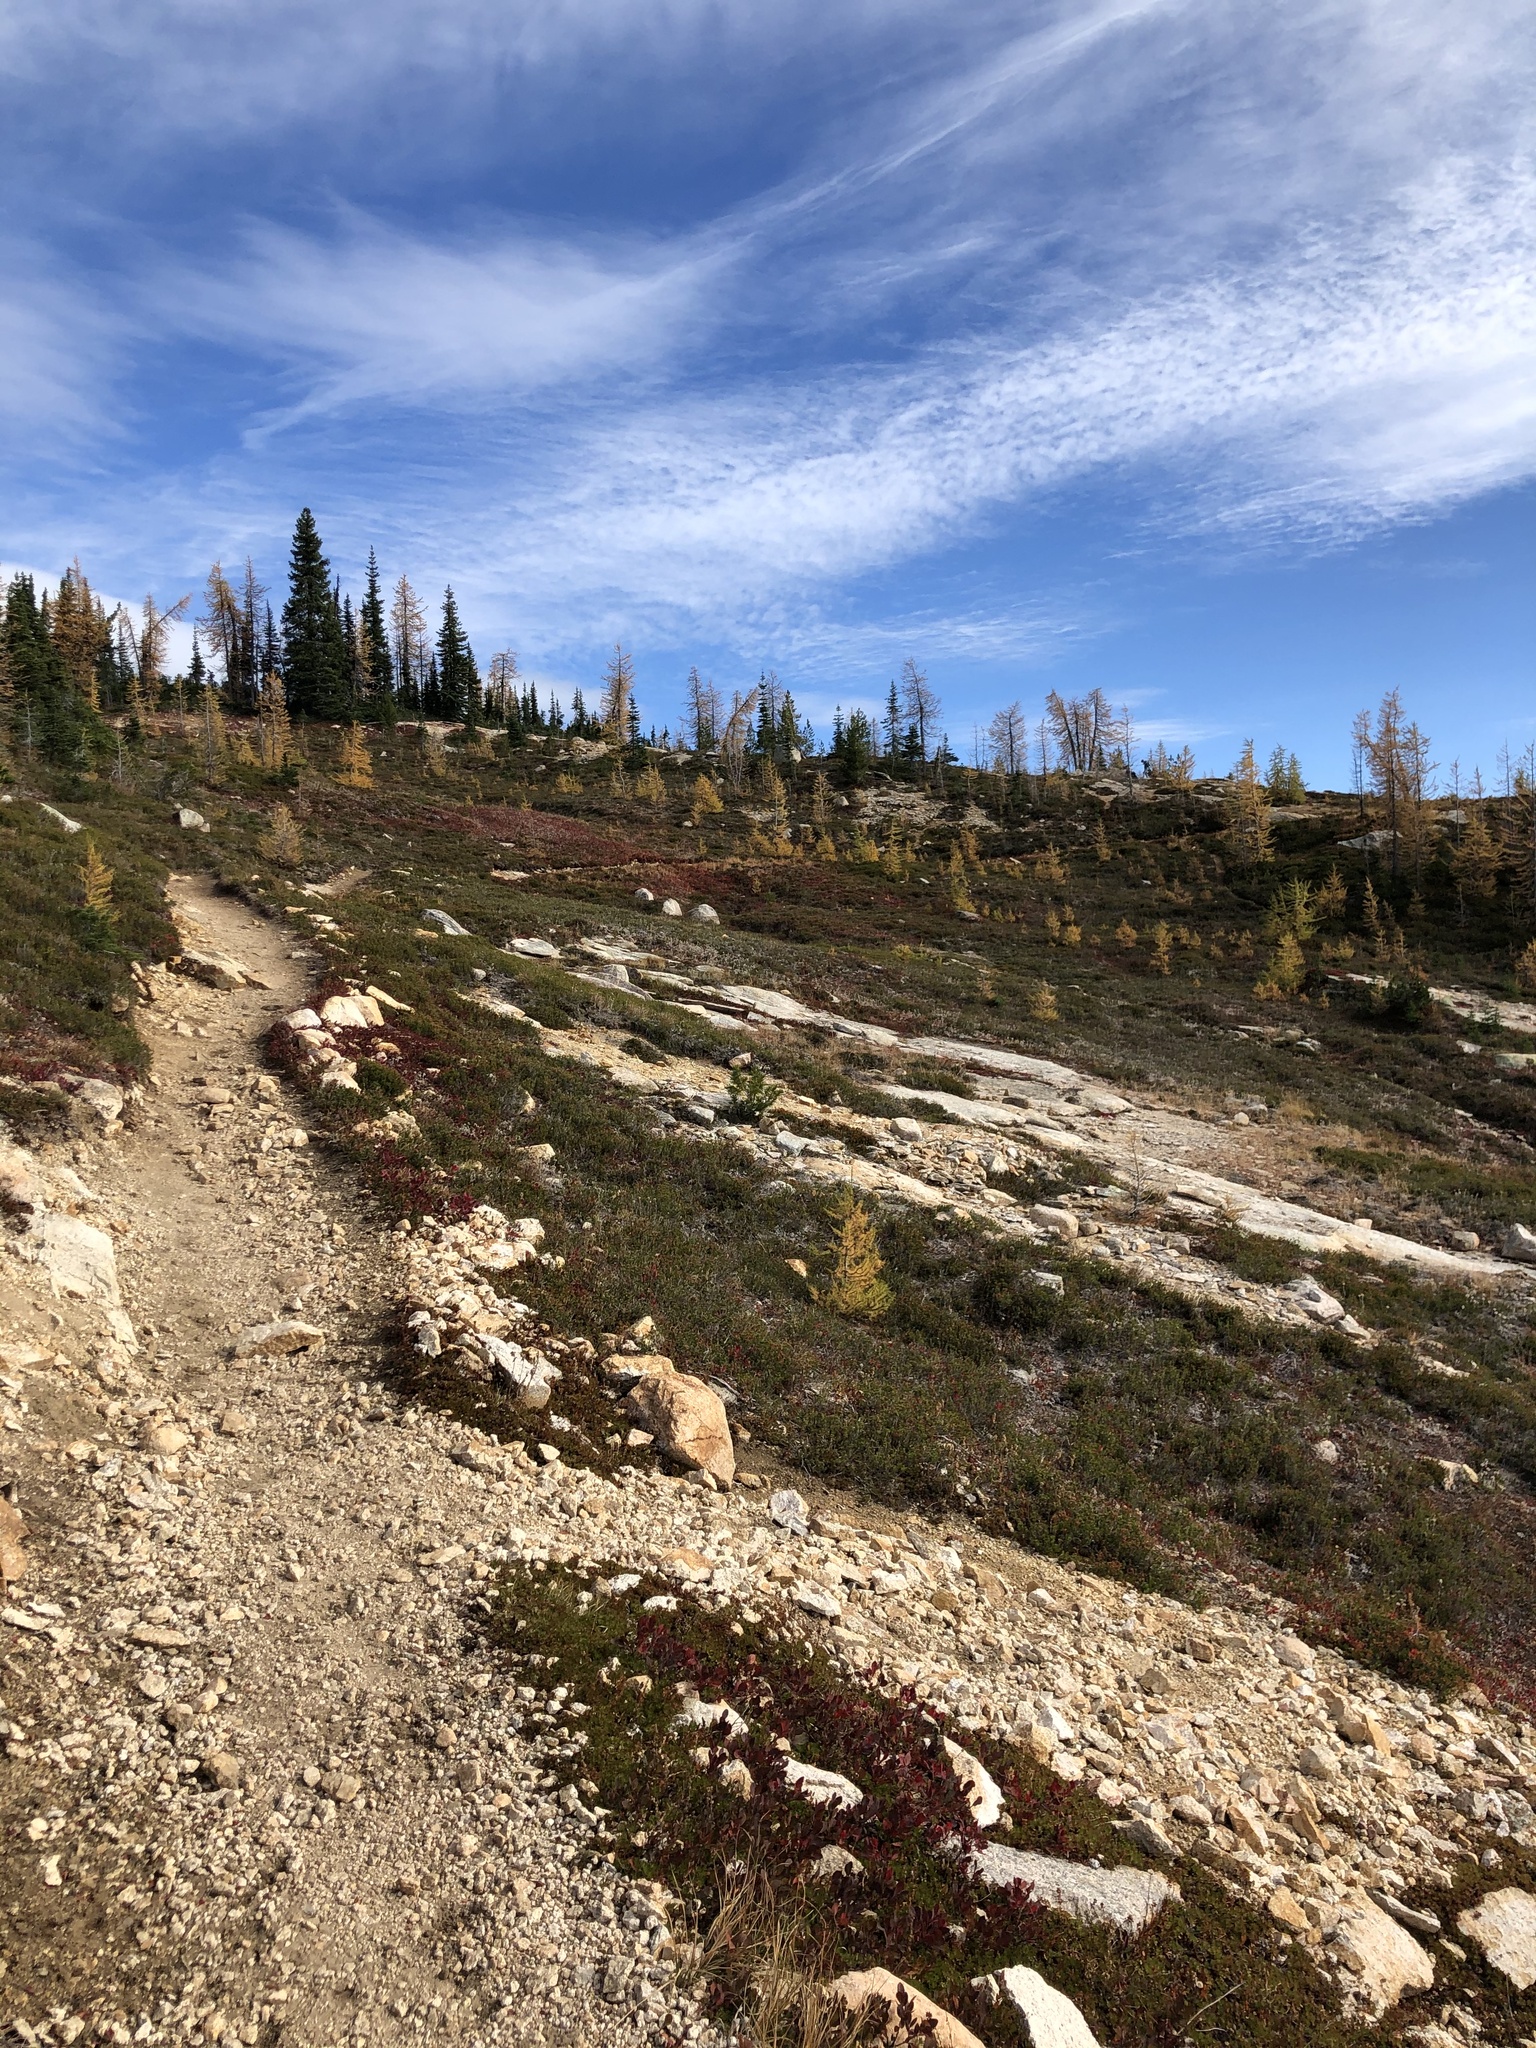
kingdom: Plantae
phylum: Tracheophyta
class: Pinopsida
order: Pinales
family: Pinaceae
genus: Larix
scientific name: Larix lyallii
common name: Alpine larch
